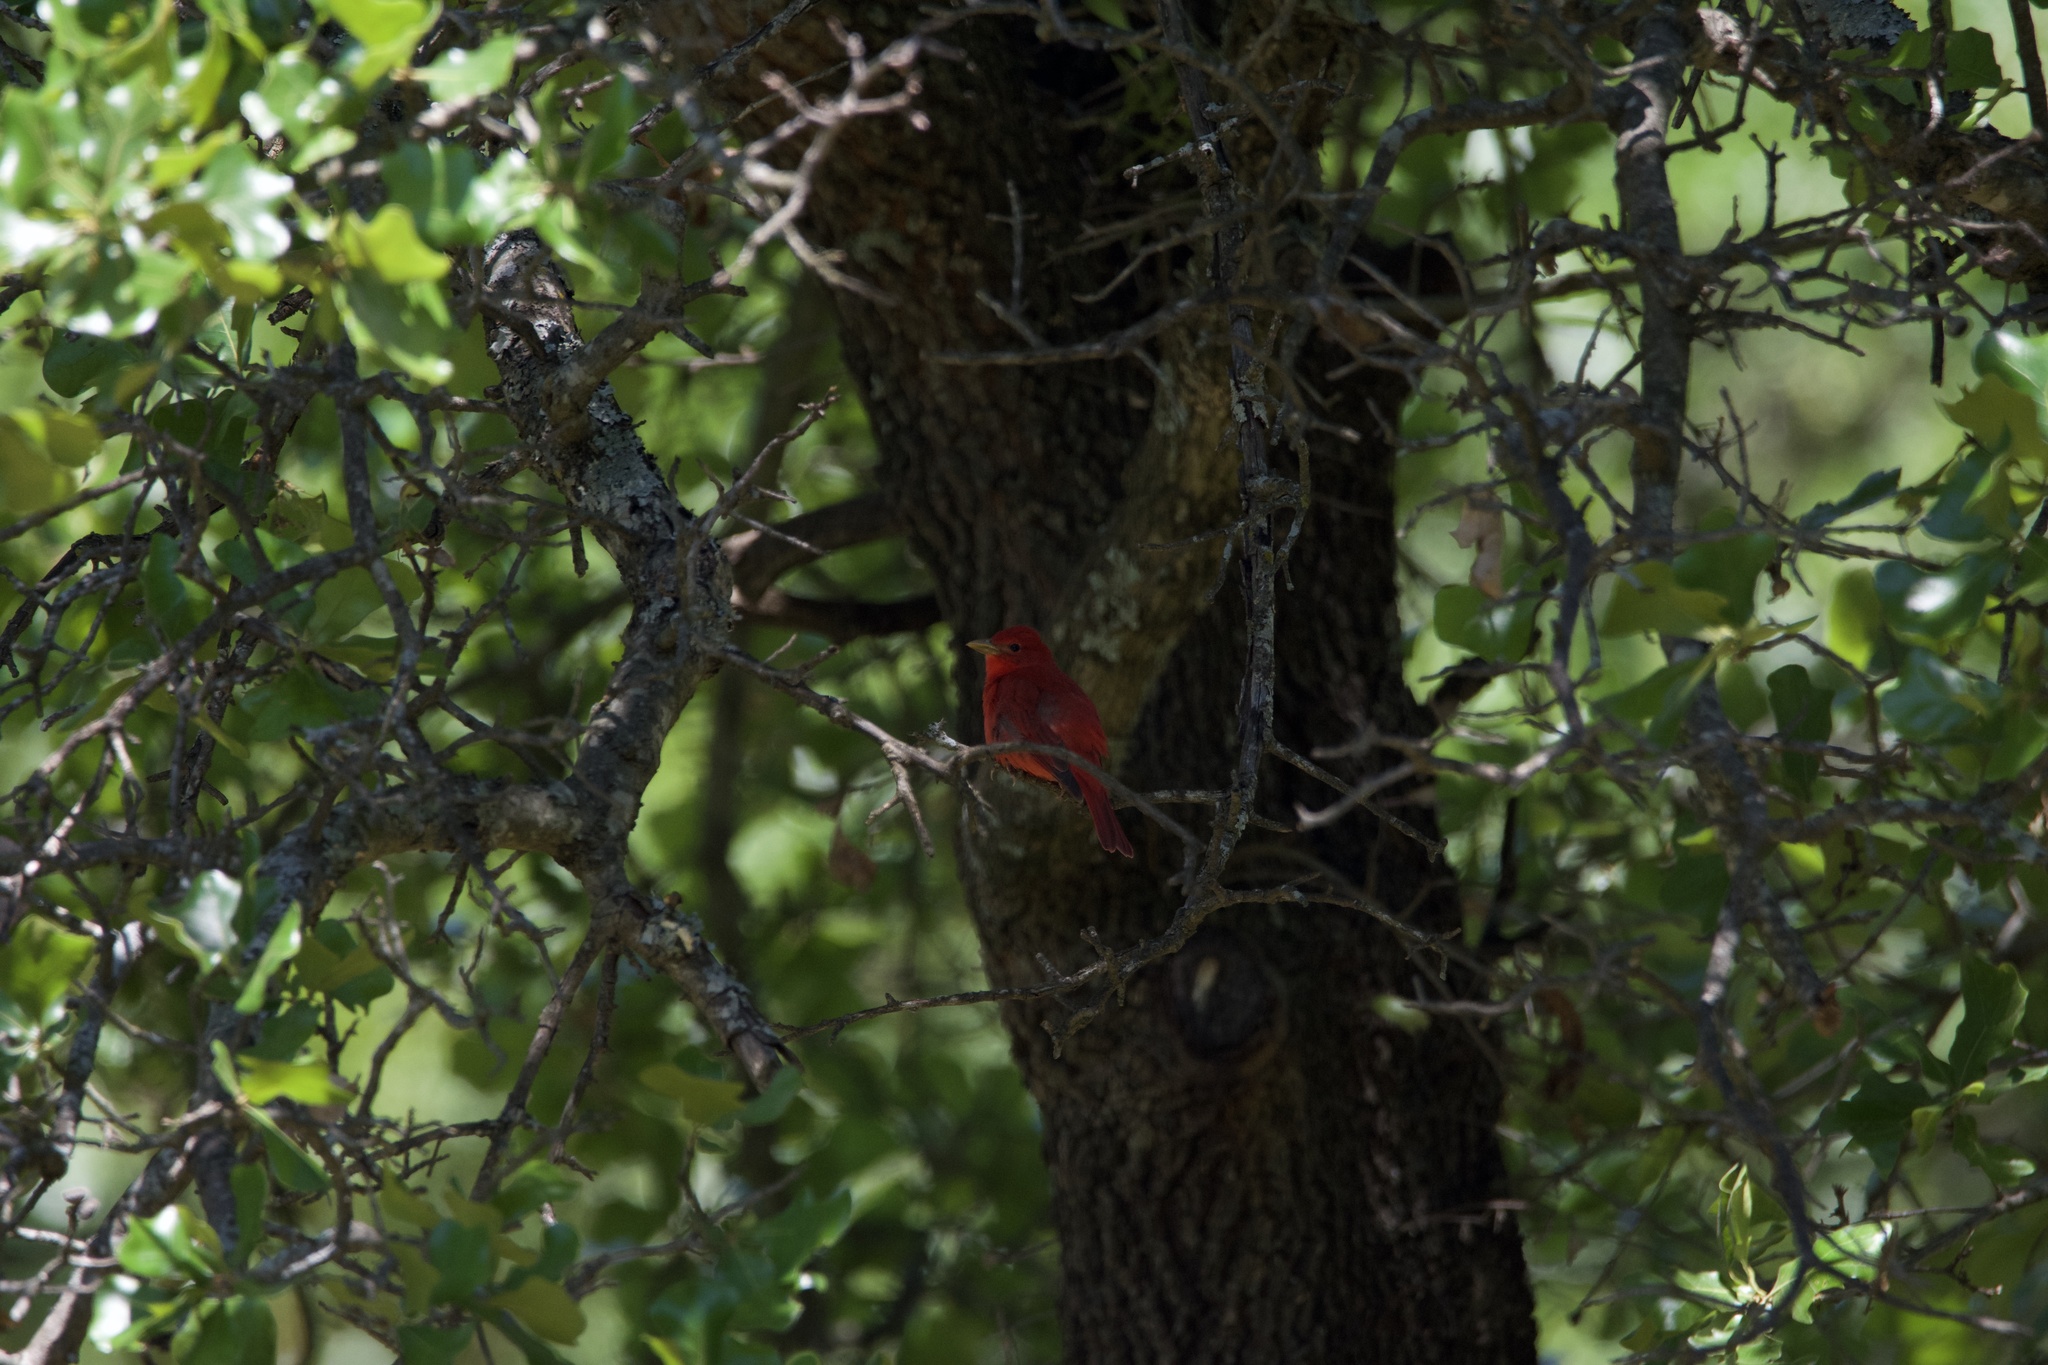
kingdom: Animalia
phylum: Chordata
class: Aves
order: Passeriformes
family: Cardinalidae
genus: Piranga
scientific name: Piranga rubra
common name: Summer tanager
